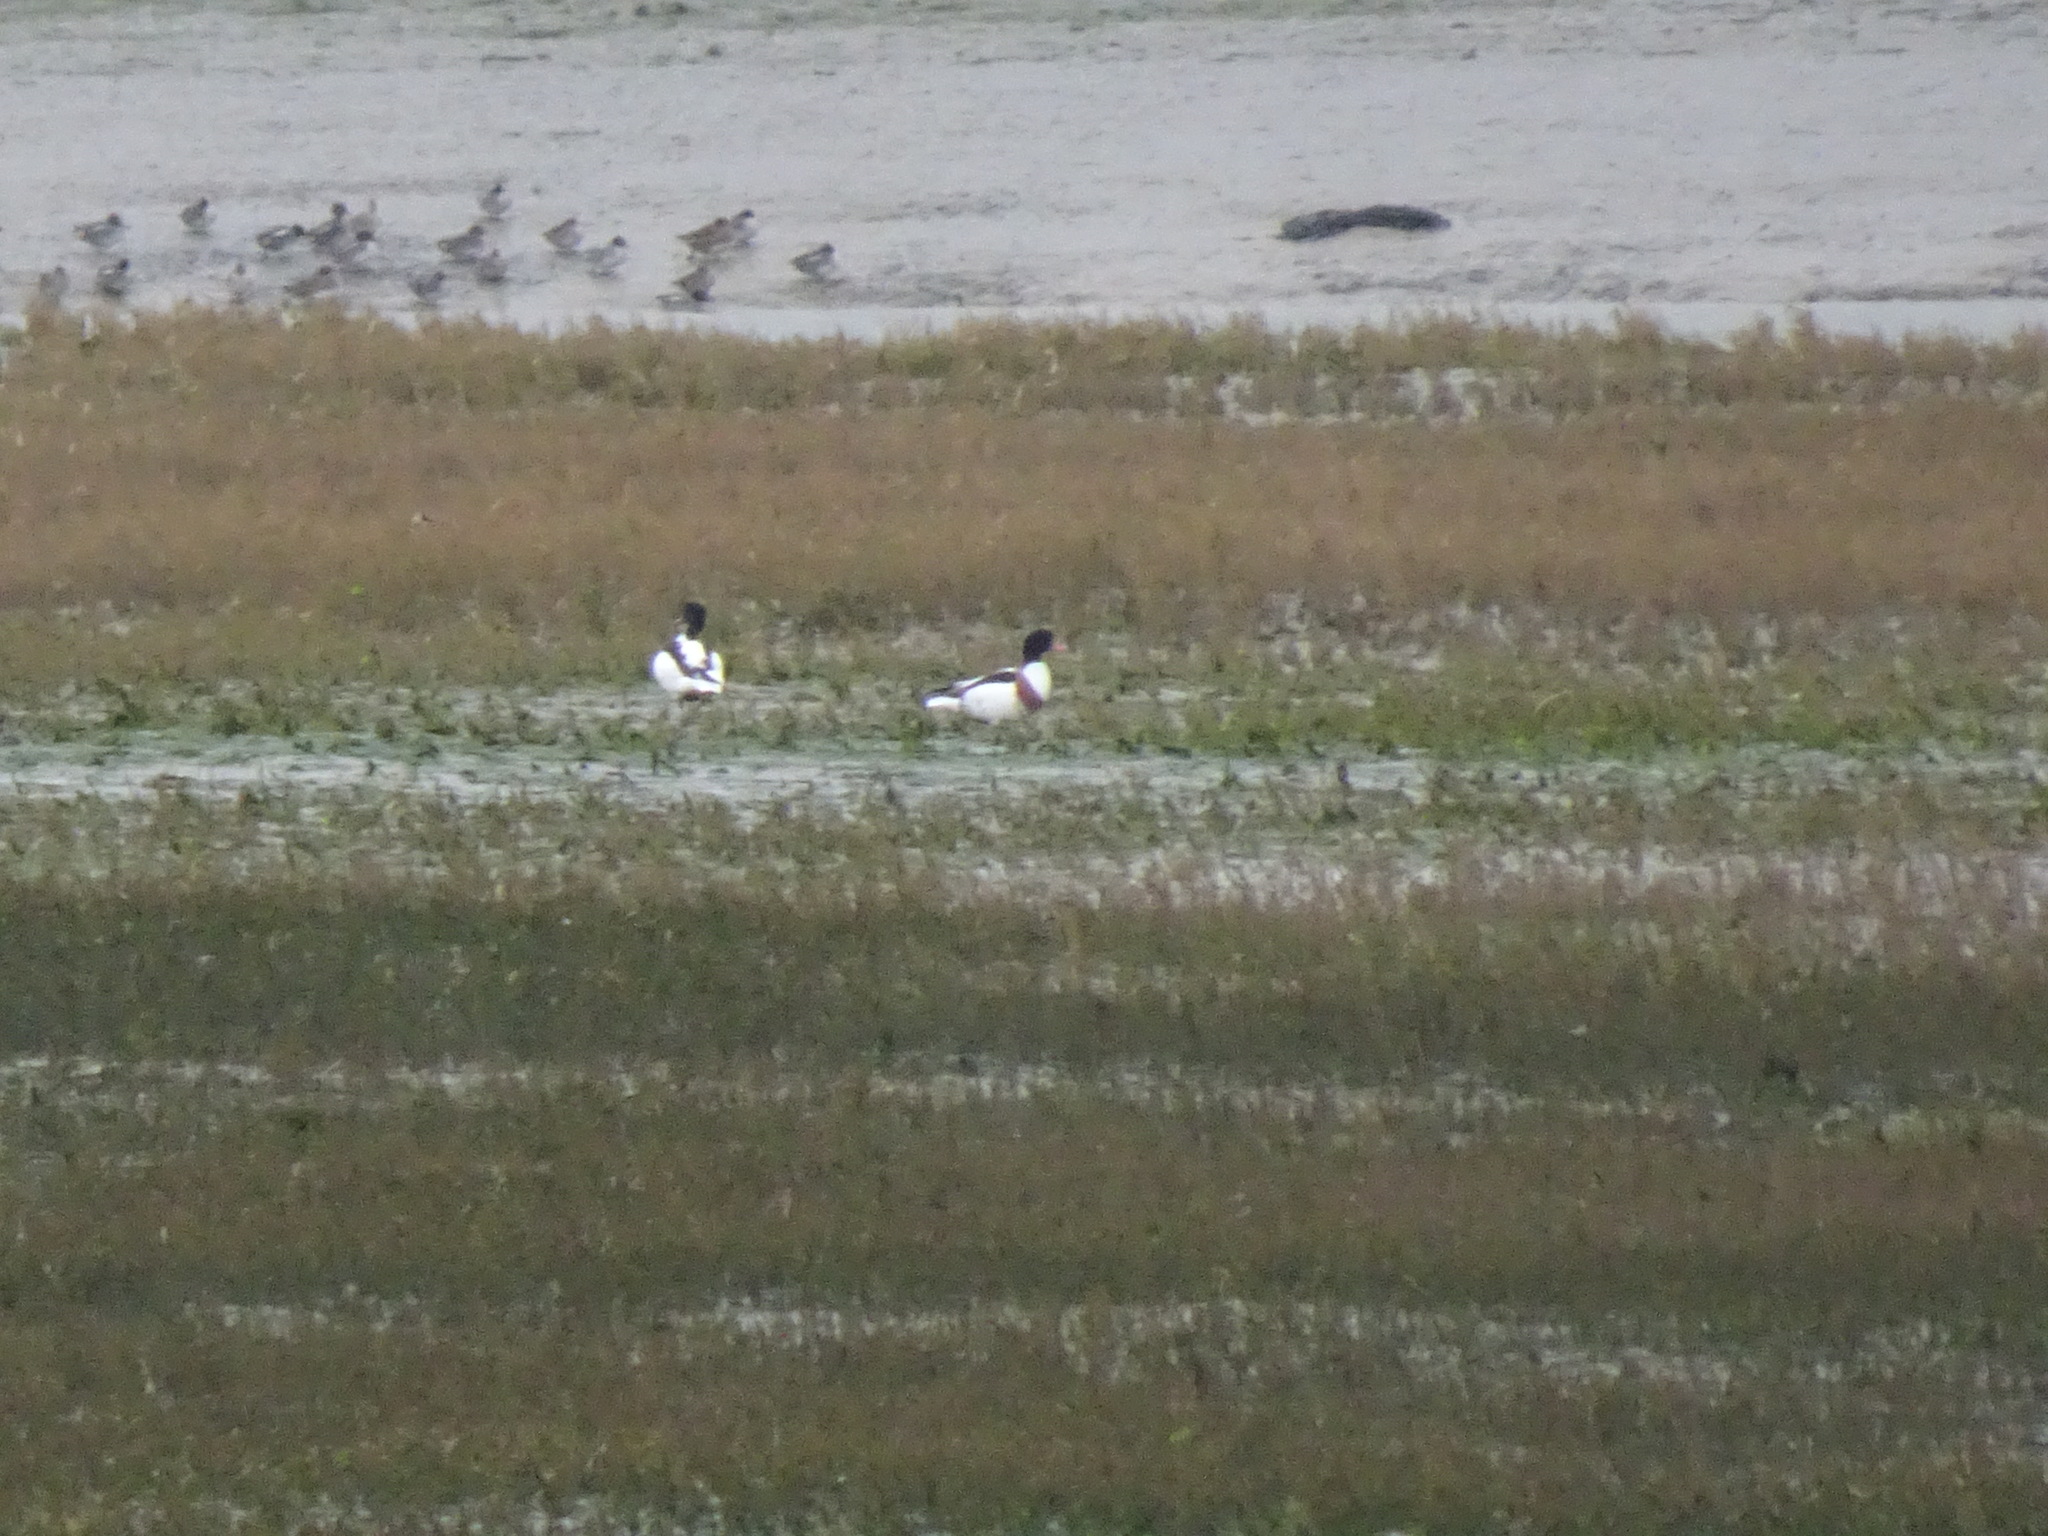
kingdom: Animalia
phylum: Chordata
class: Aves
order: Anseriformes
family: Anatidae
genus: Tadorna
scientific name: Tadorna tadorna
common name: Common shelduck
